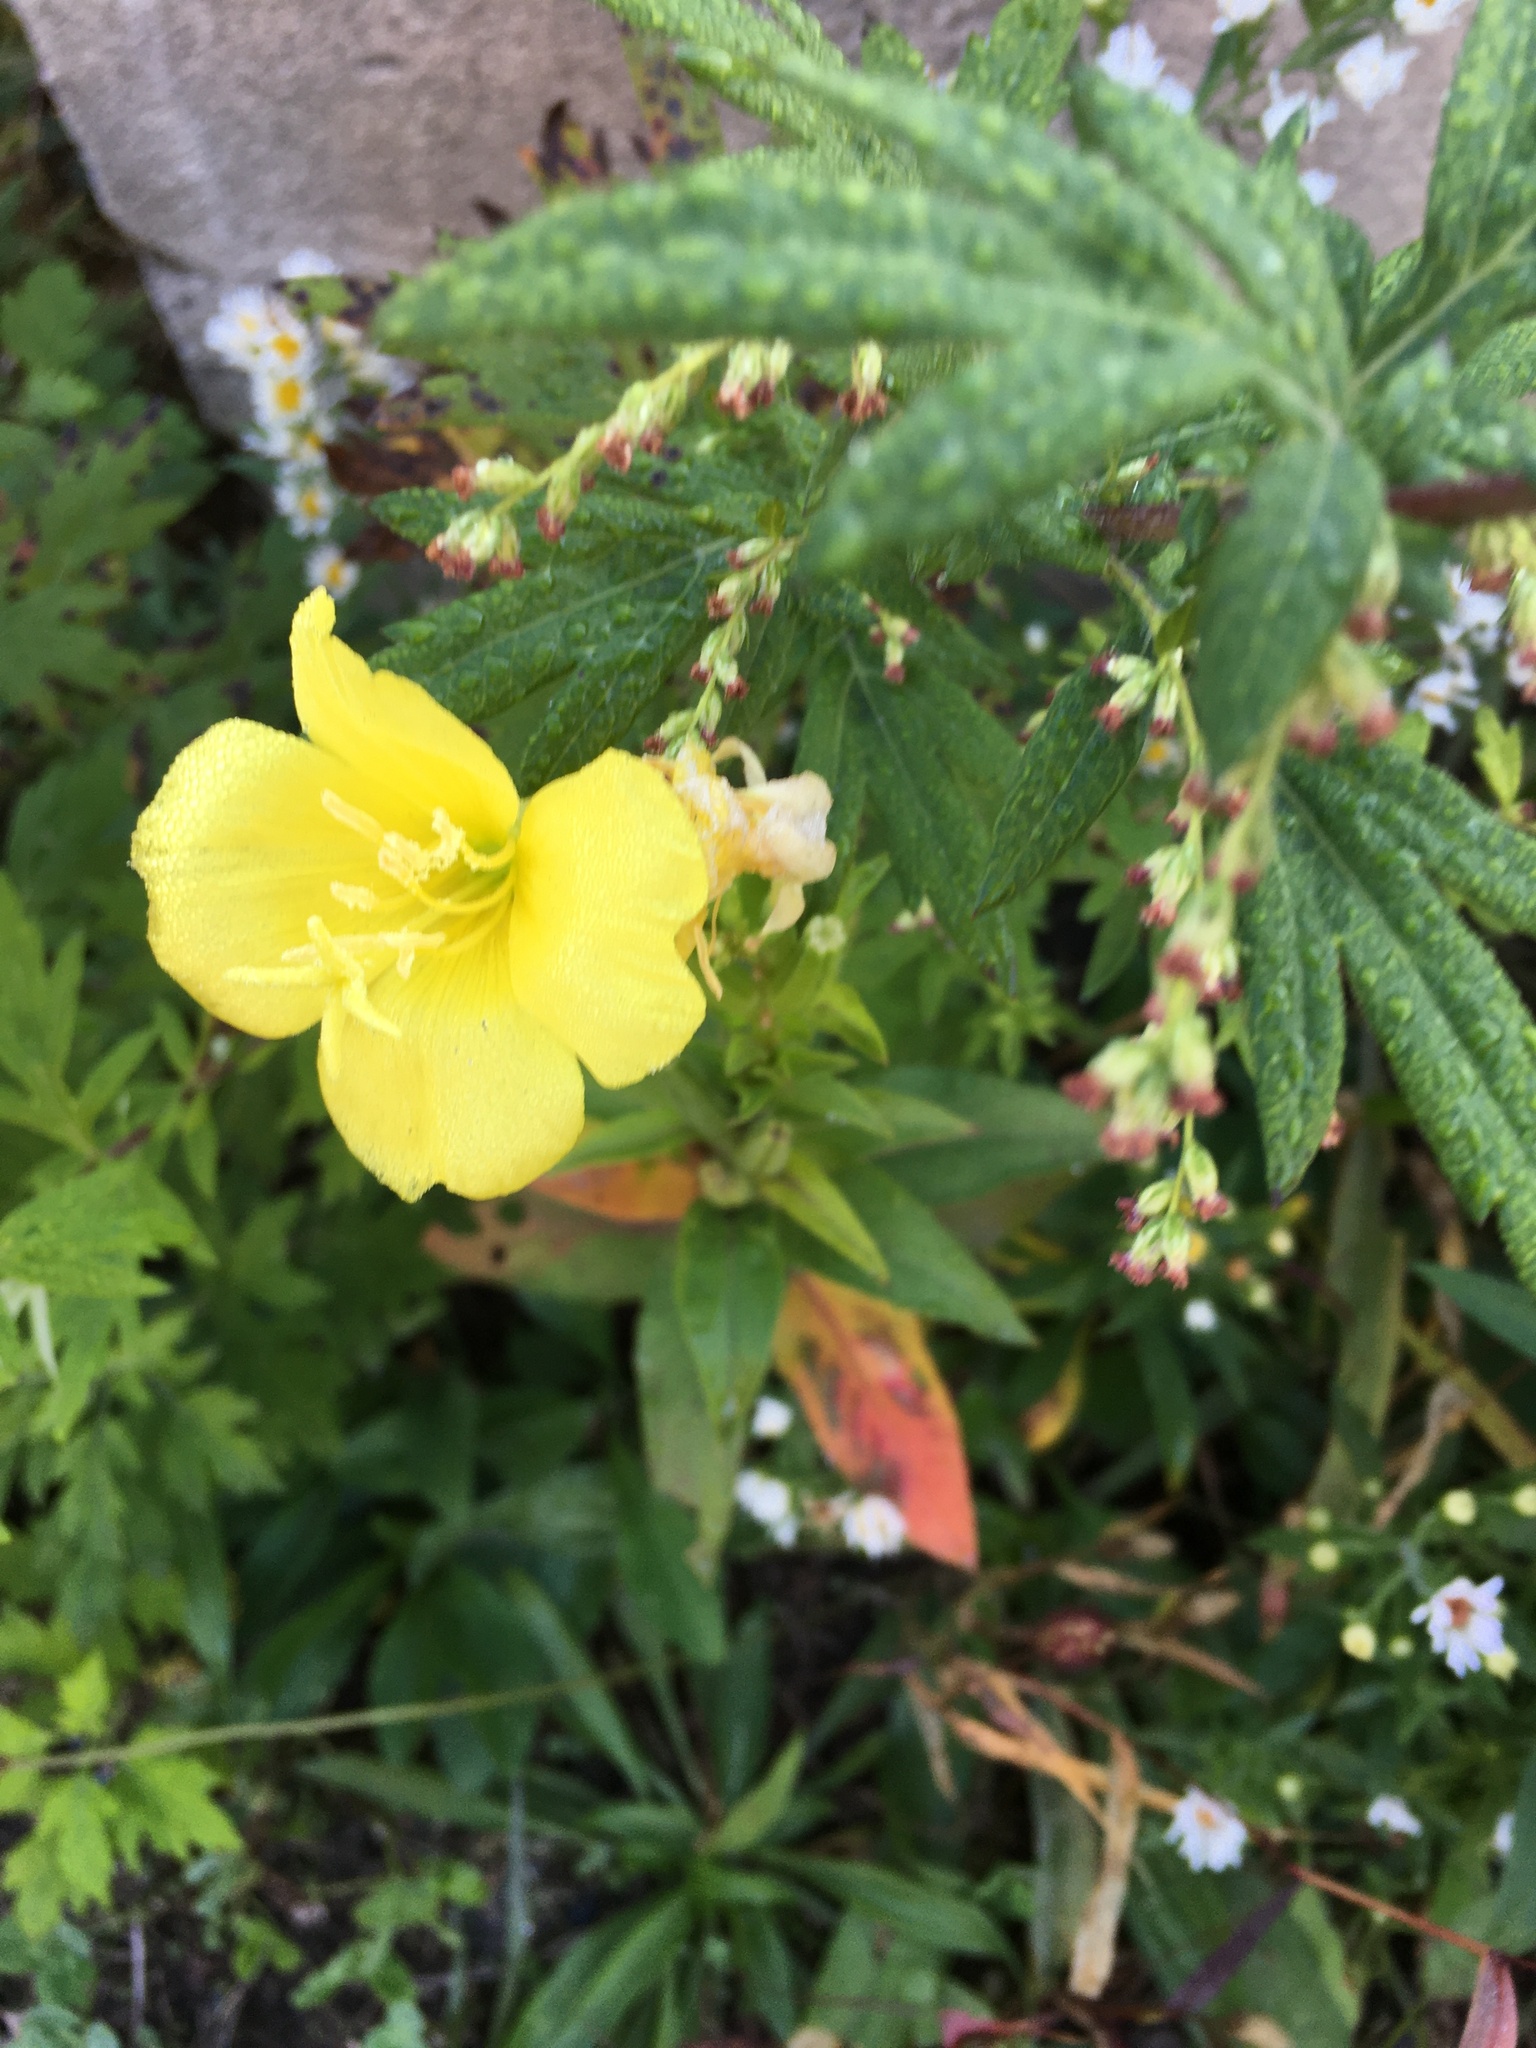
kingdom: Plantae
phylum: Tracheophyta
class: Magnoliopsida
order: Myrtales
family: Onagraceae
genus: Oenothera
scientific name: Oenothera biennis
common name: Common evening-primrose
